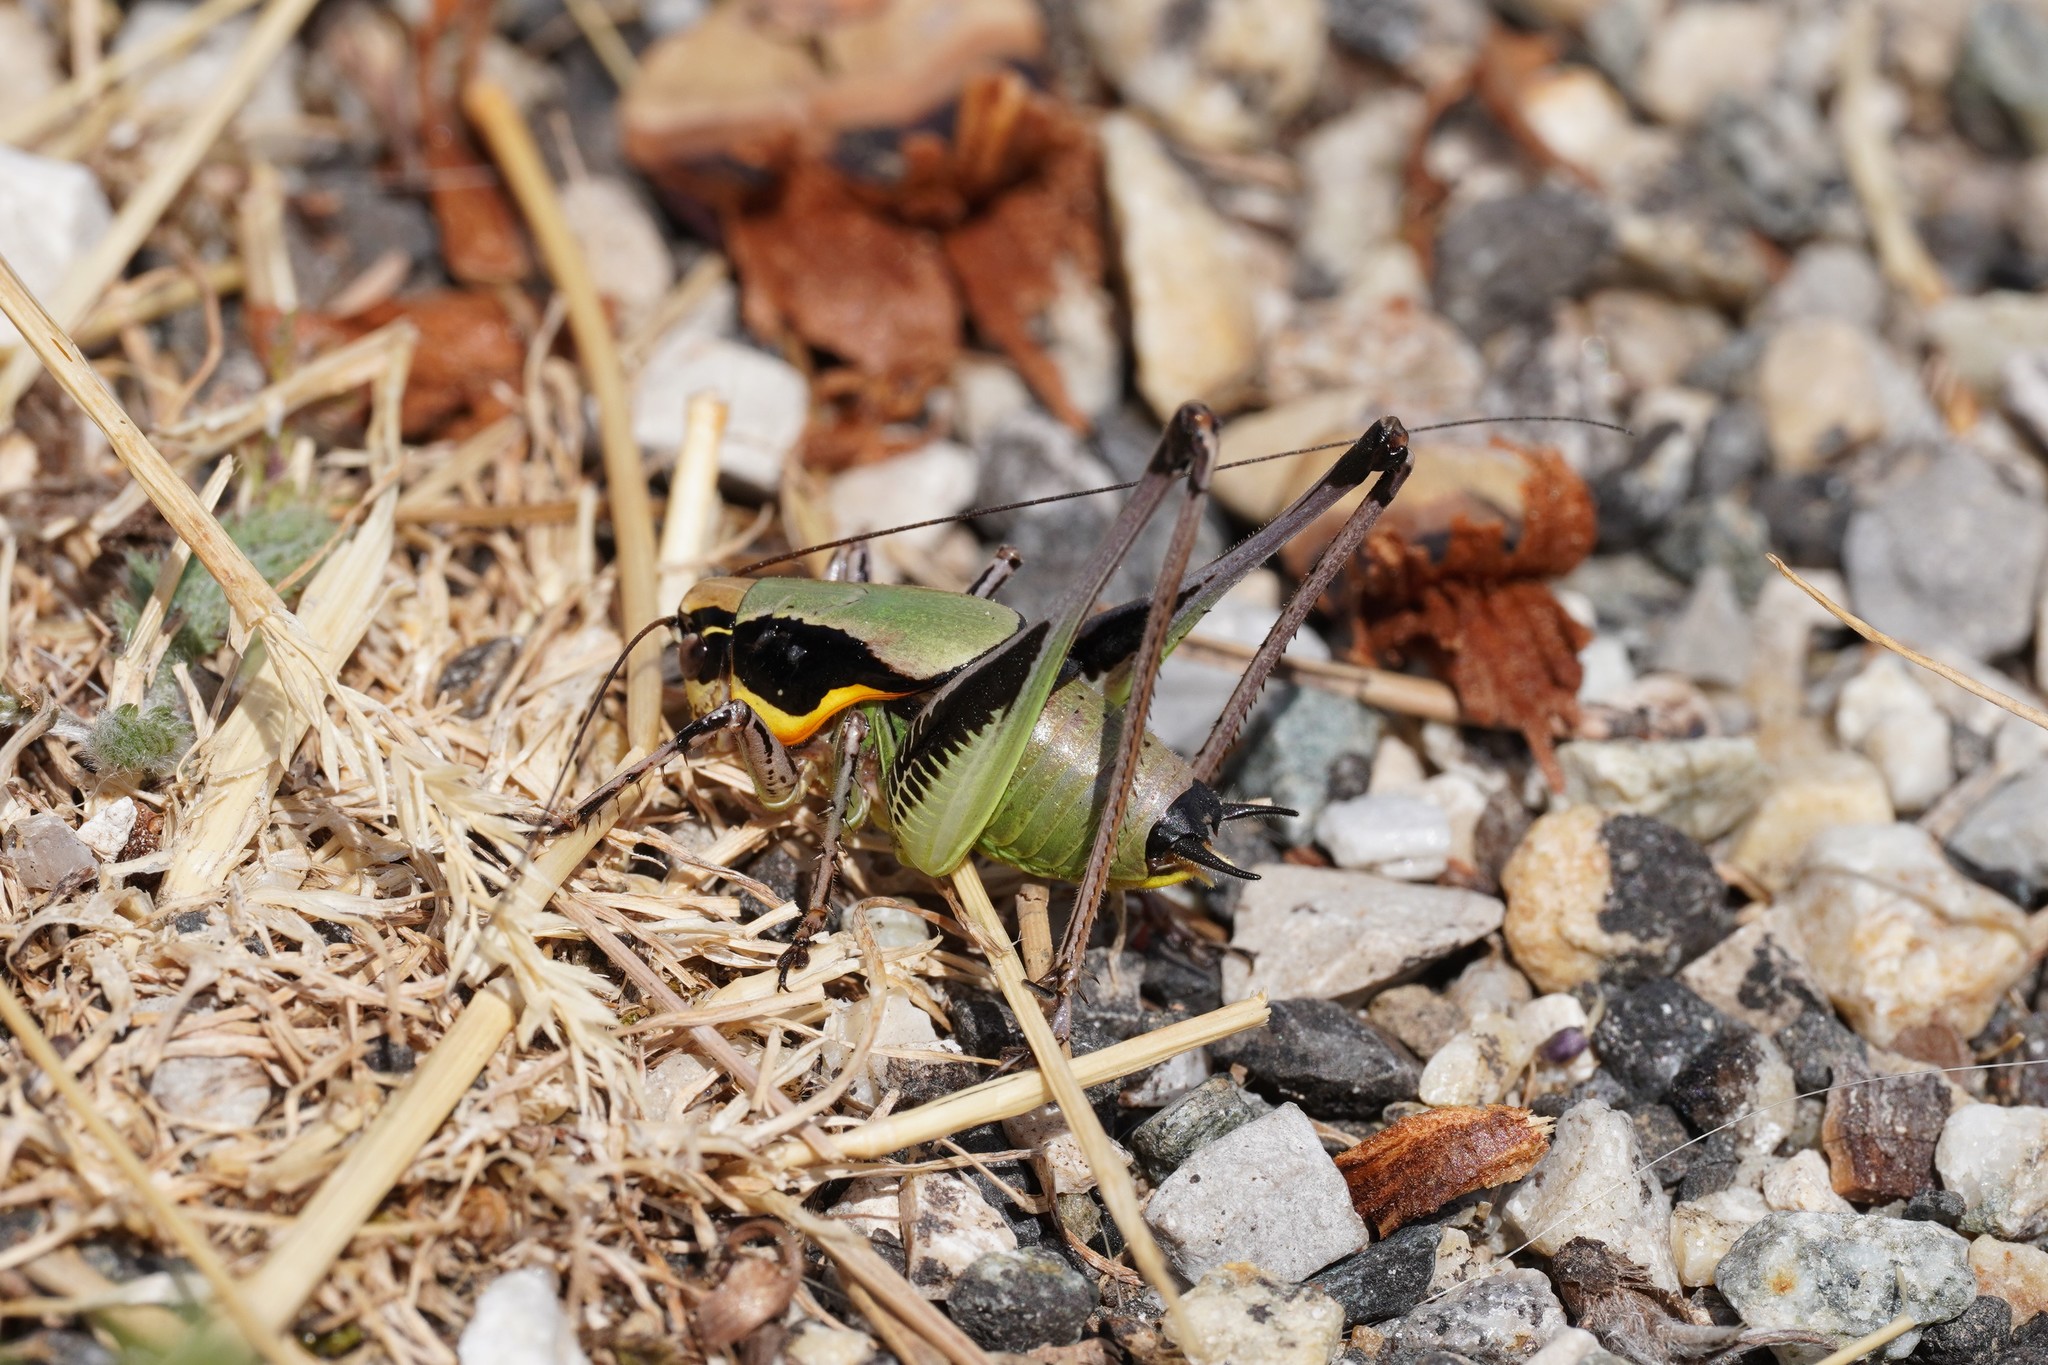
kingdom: Animalia
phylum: Arthropoda
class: Insecta
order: Orthoptera
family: Tettigoniidae
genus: Eupholidoptera
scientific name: Eupholidoptera chabrieri
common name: Chabrier's marbled bush-cricket
